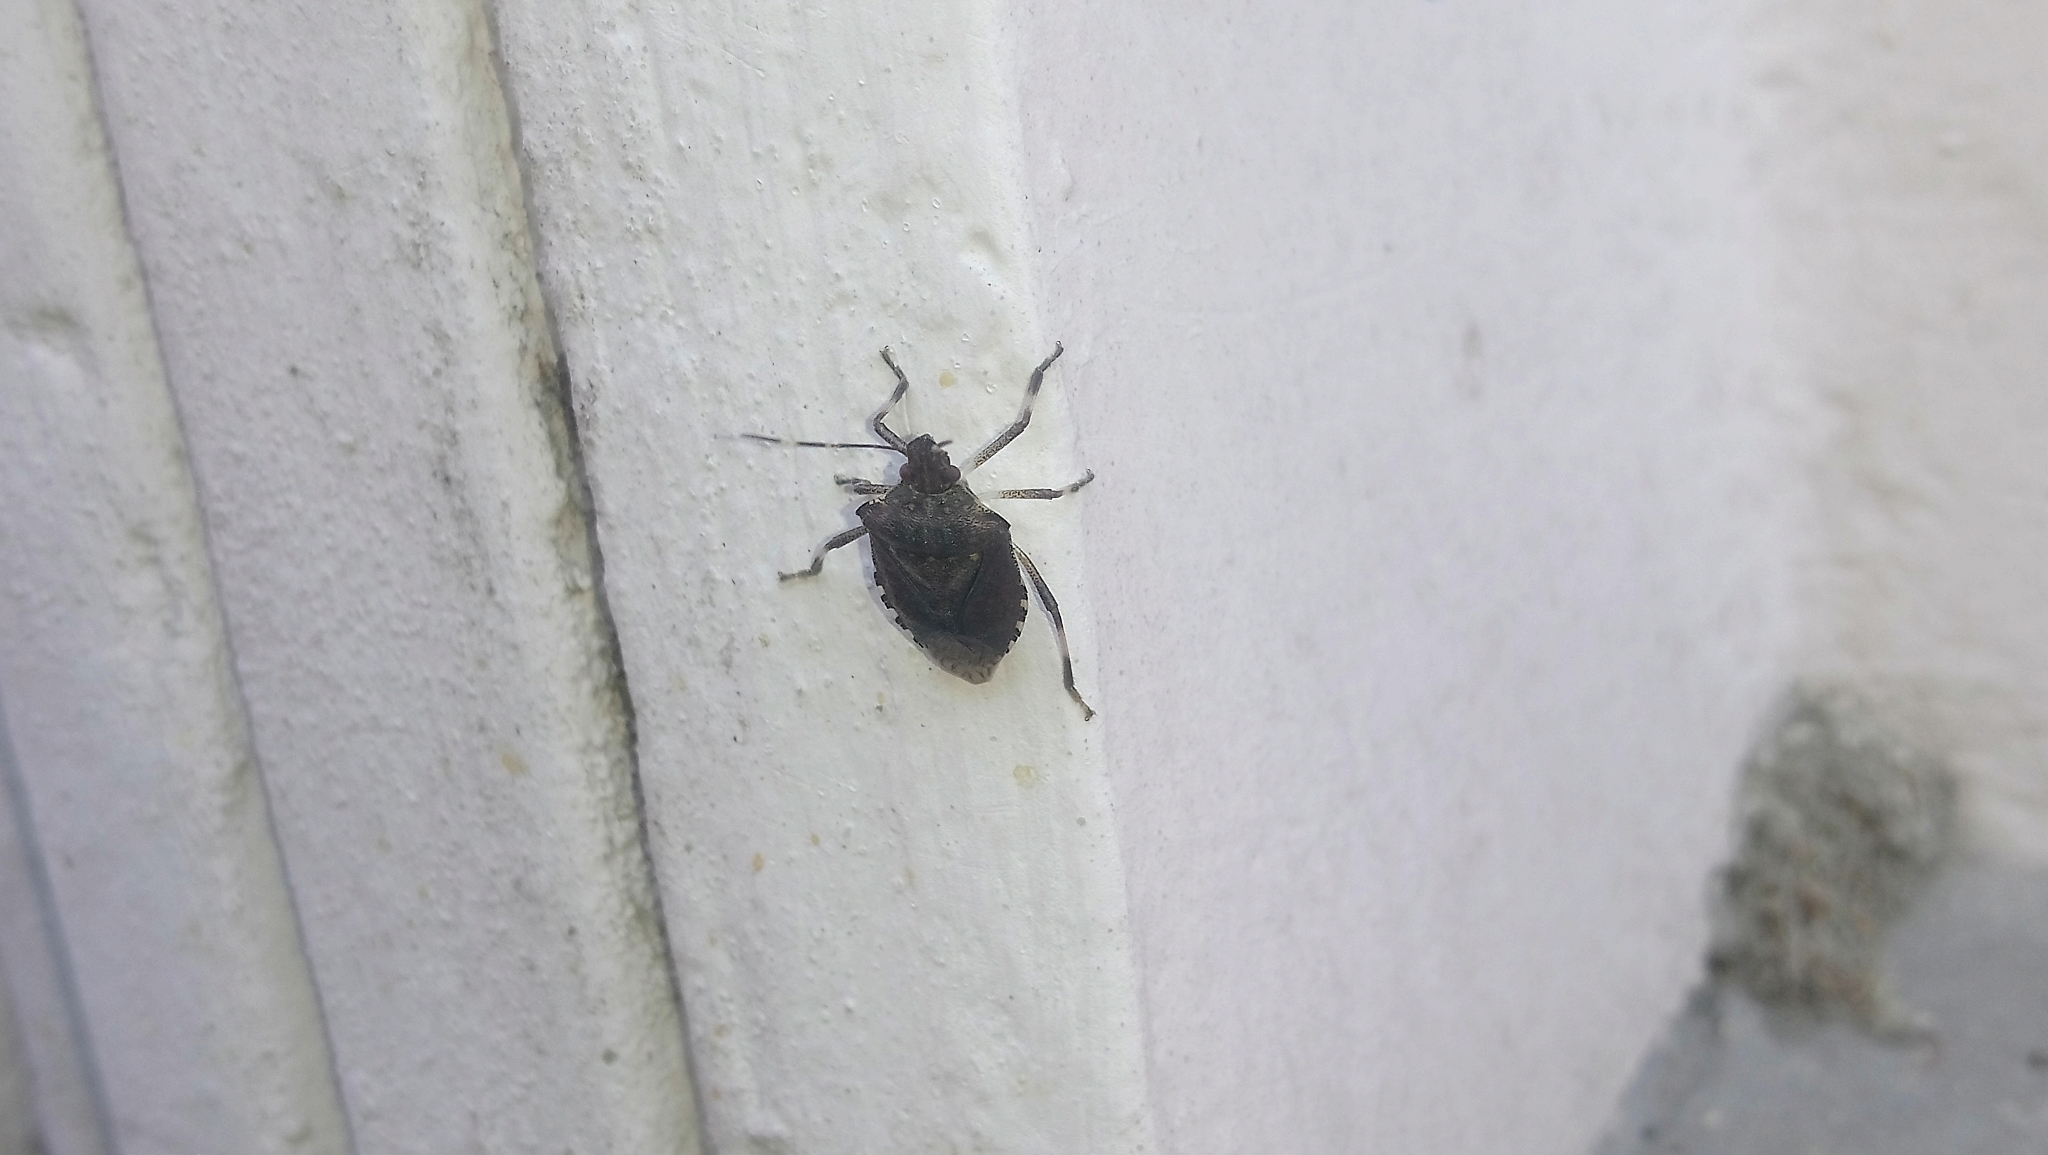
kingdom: Animalia
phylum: Arthropoda
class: Insecta
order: Hemiptera
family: Pentatomidae
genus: Halyomorpha
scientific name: Halyomorpha halys
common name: Brown marmorated stink bug
